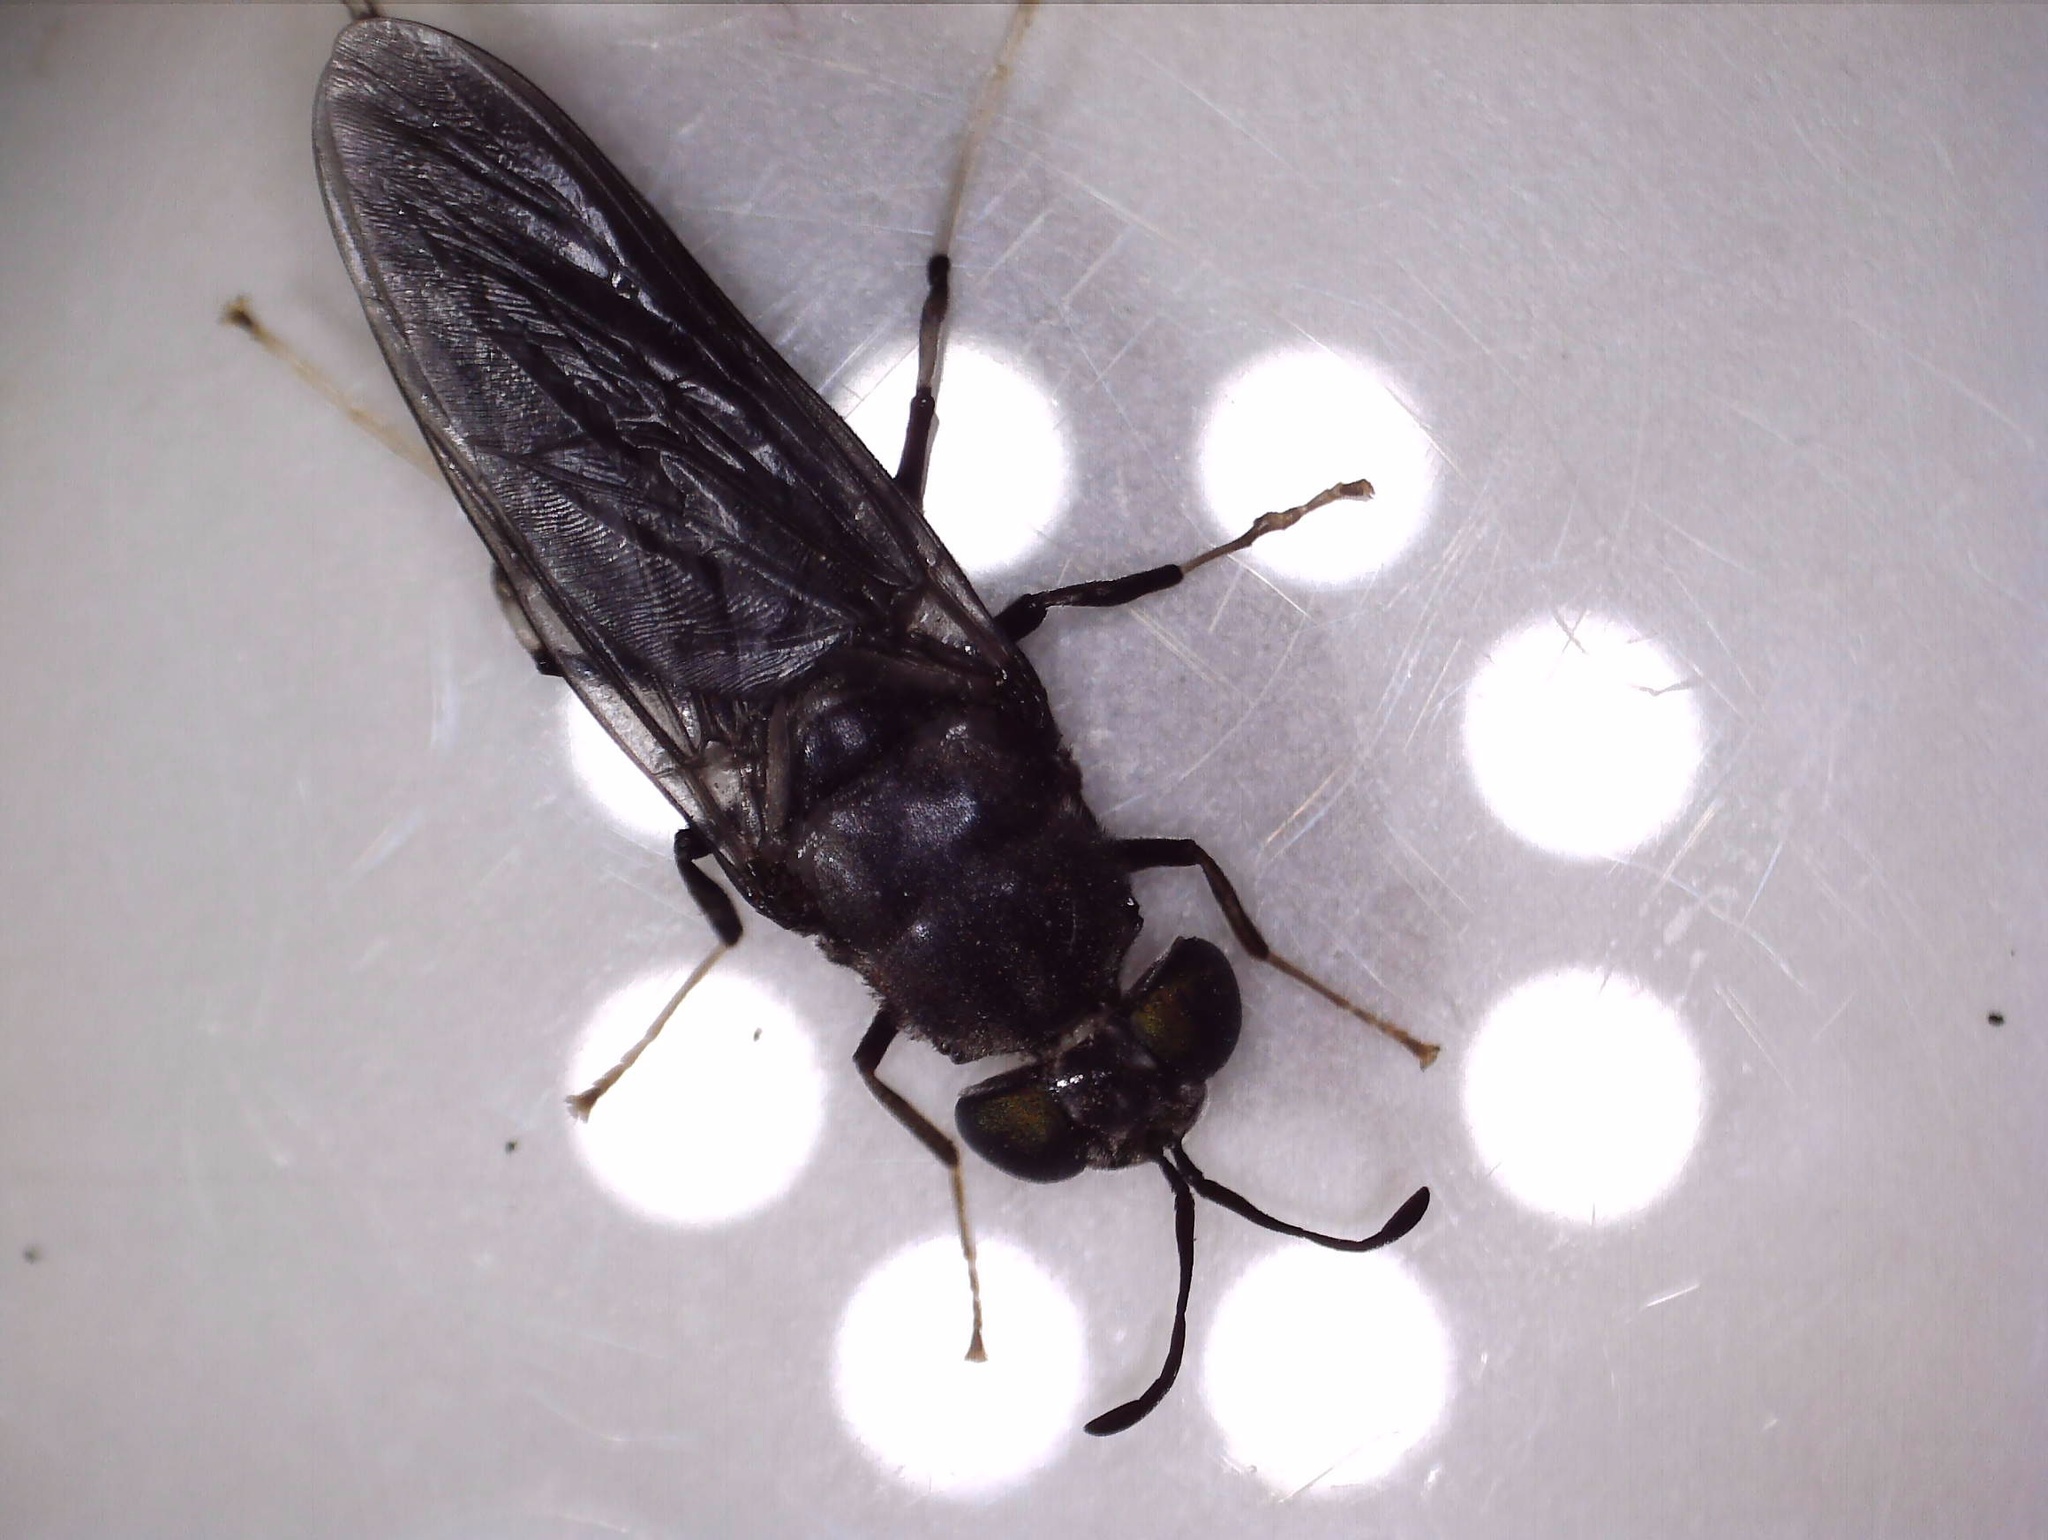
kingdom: Animalia
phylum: Arthropoda
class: Insecta
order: Diptera
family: Stratiomyidae
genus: Hermetia
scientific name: Hermetia illucens
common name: Black soldier fly
